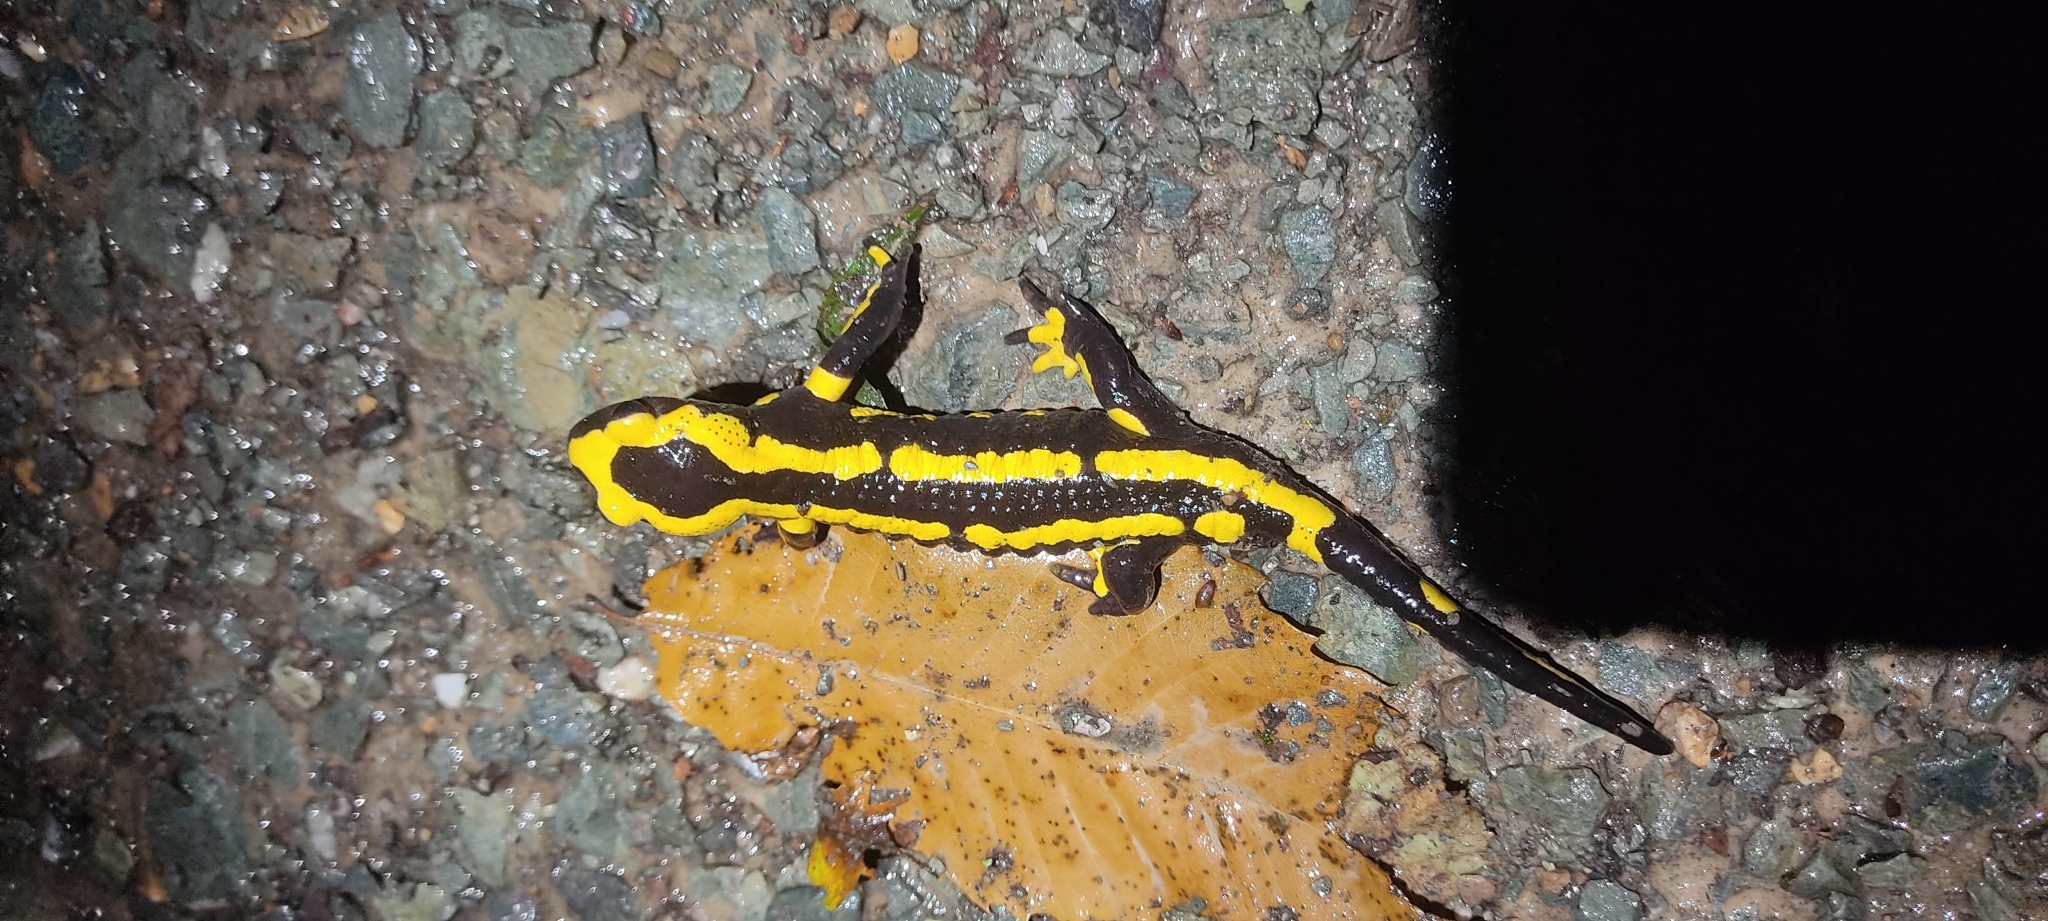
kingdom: Animalia
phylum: Chordata
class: Amphibia
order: Caudata
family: Salamandridae
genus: Salamandra
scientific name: Salamandra salamandra
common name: Fire salamander
